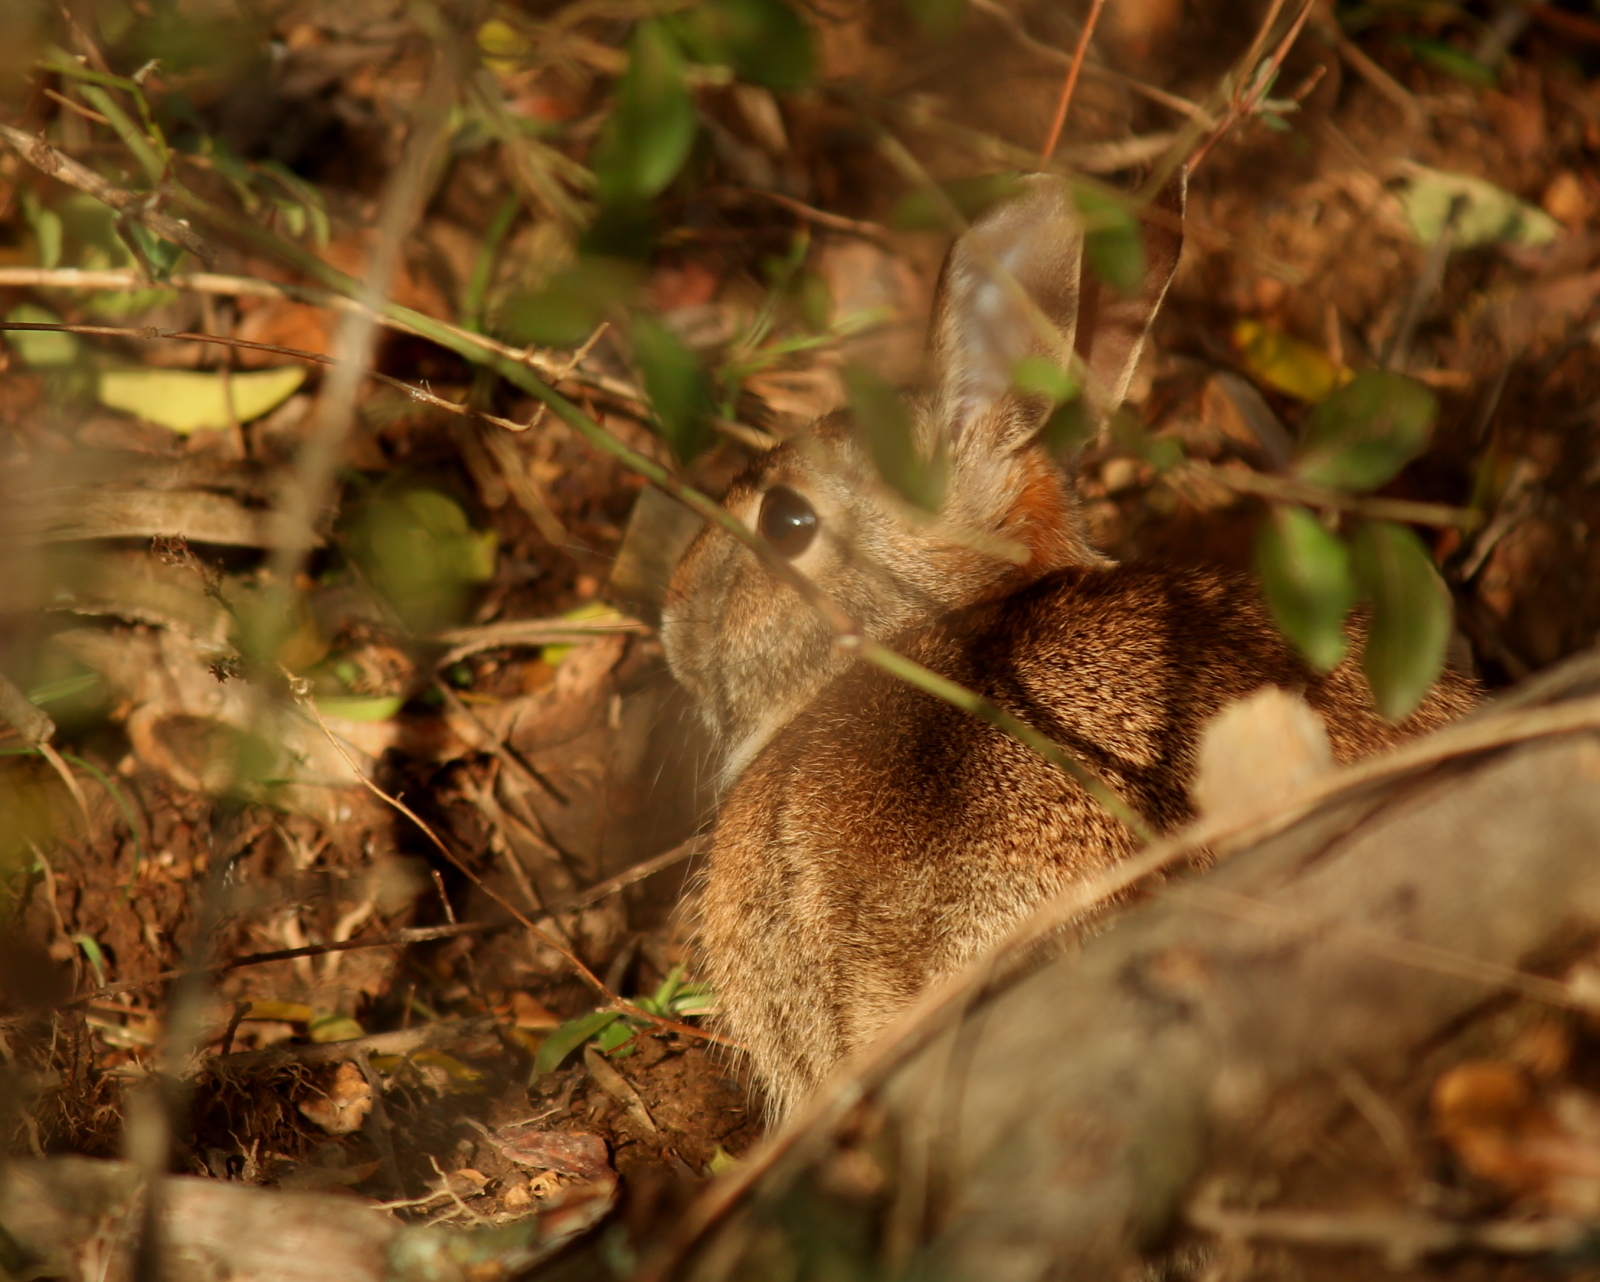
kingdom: Animalia
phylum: Chordata
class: Mammalia
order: Lagomorpha
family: Leporidae
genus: Sylvilagus
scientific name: Sylvilagus floridanus
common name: Eastern cottontail
